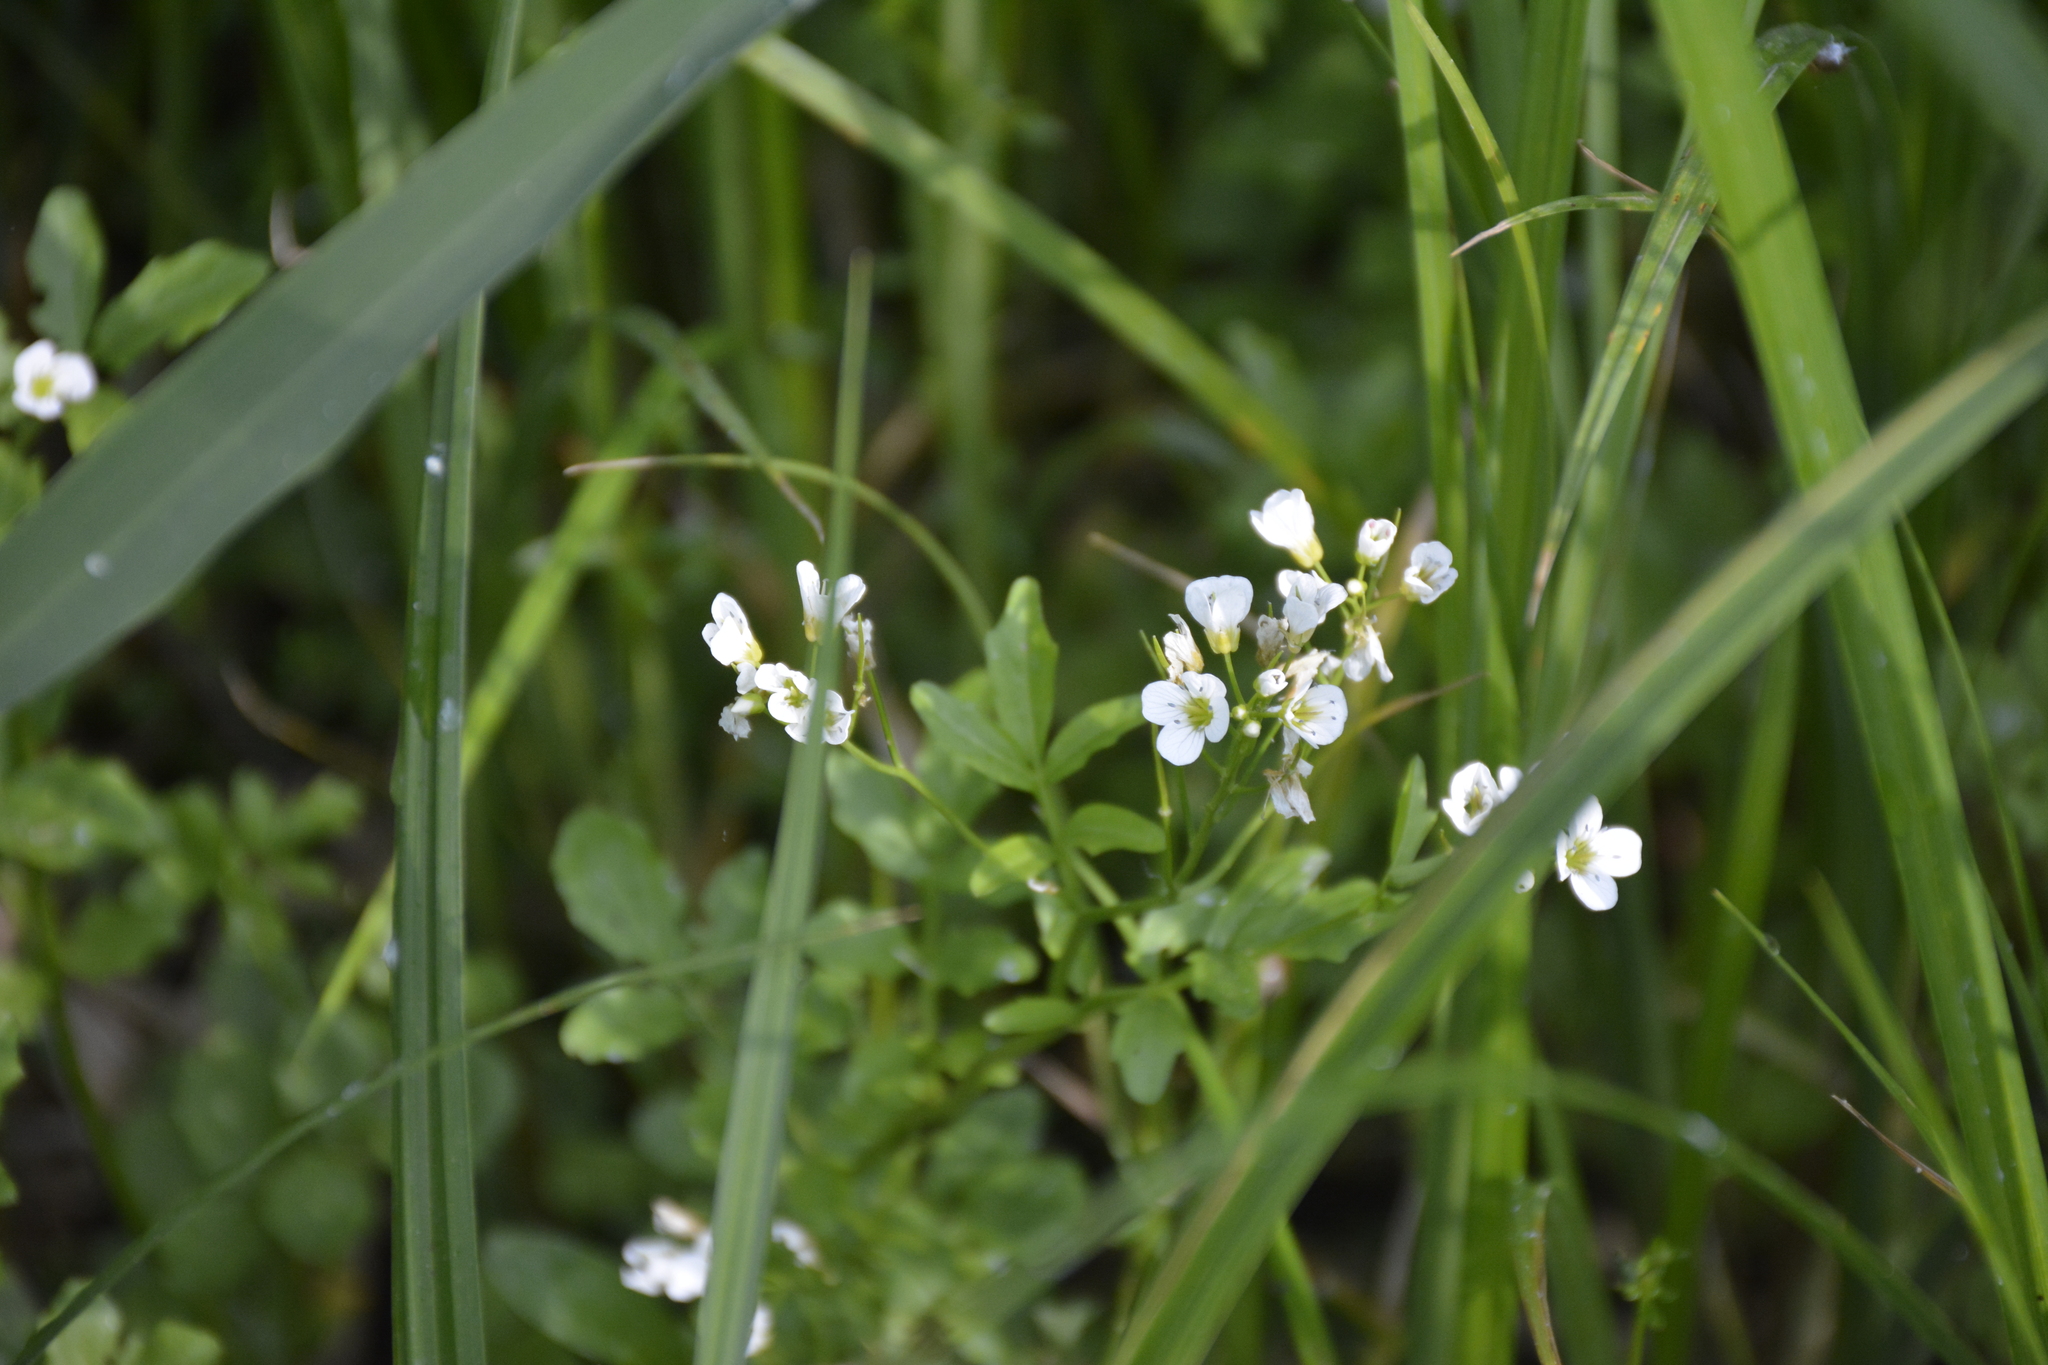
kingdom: Plantae
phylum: Tracheophyta
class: Magnoliopsida
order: Brassicales
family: Brassicaceae
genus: Cardamine
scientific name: Cardamine amara
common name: Large bitter-cress
